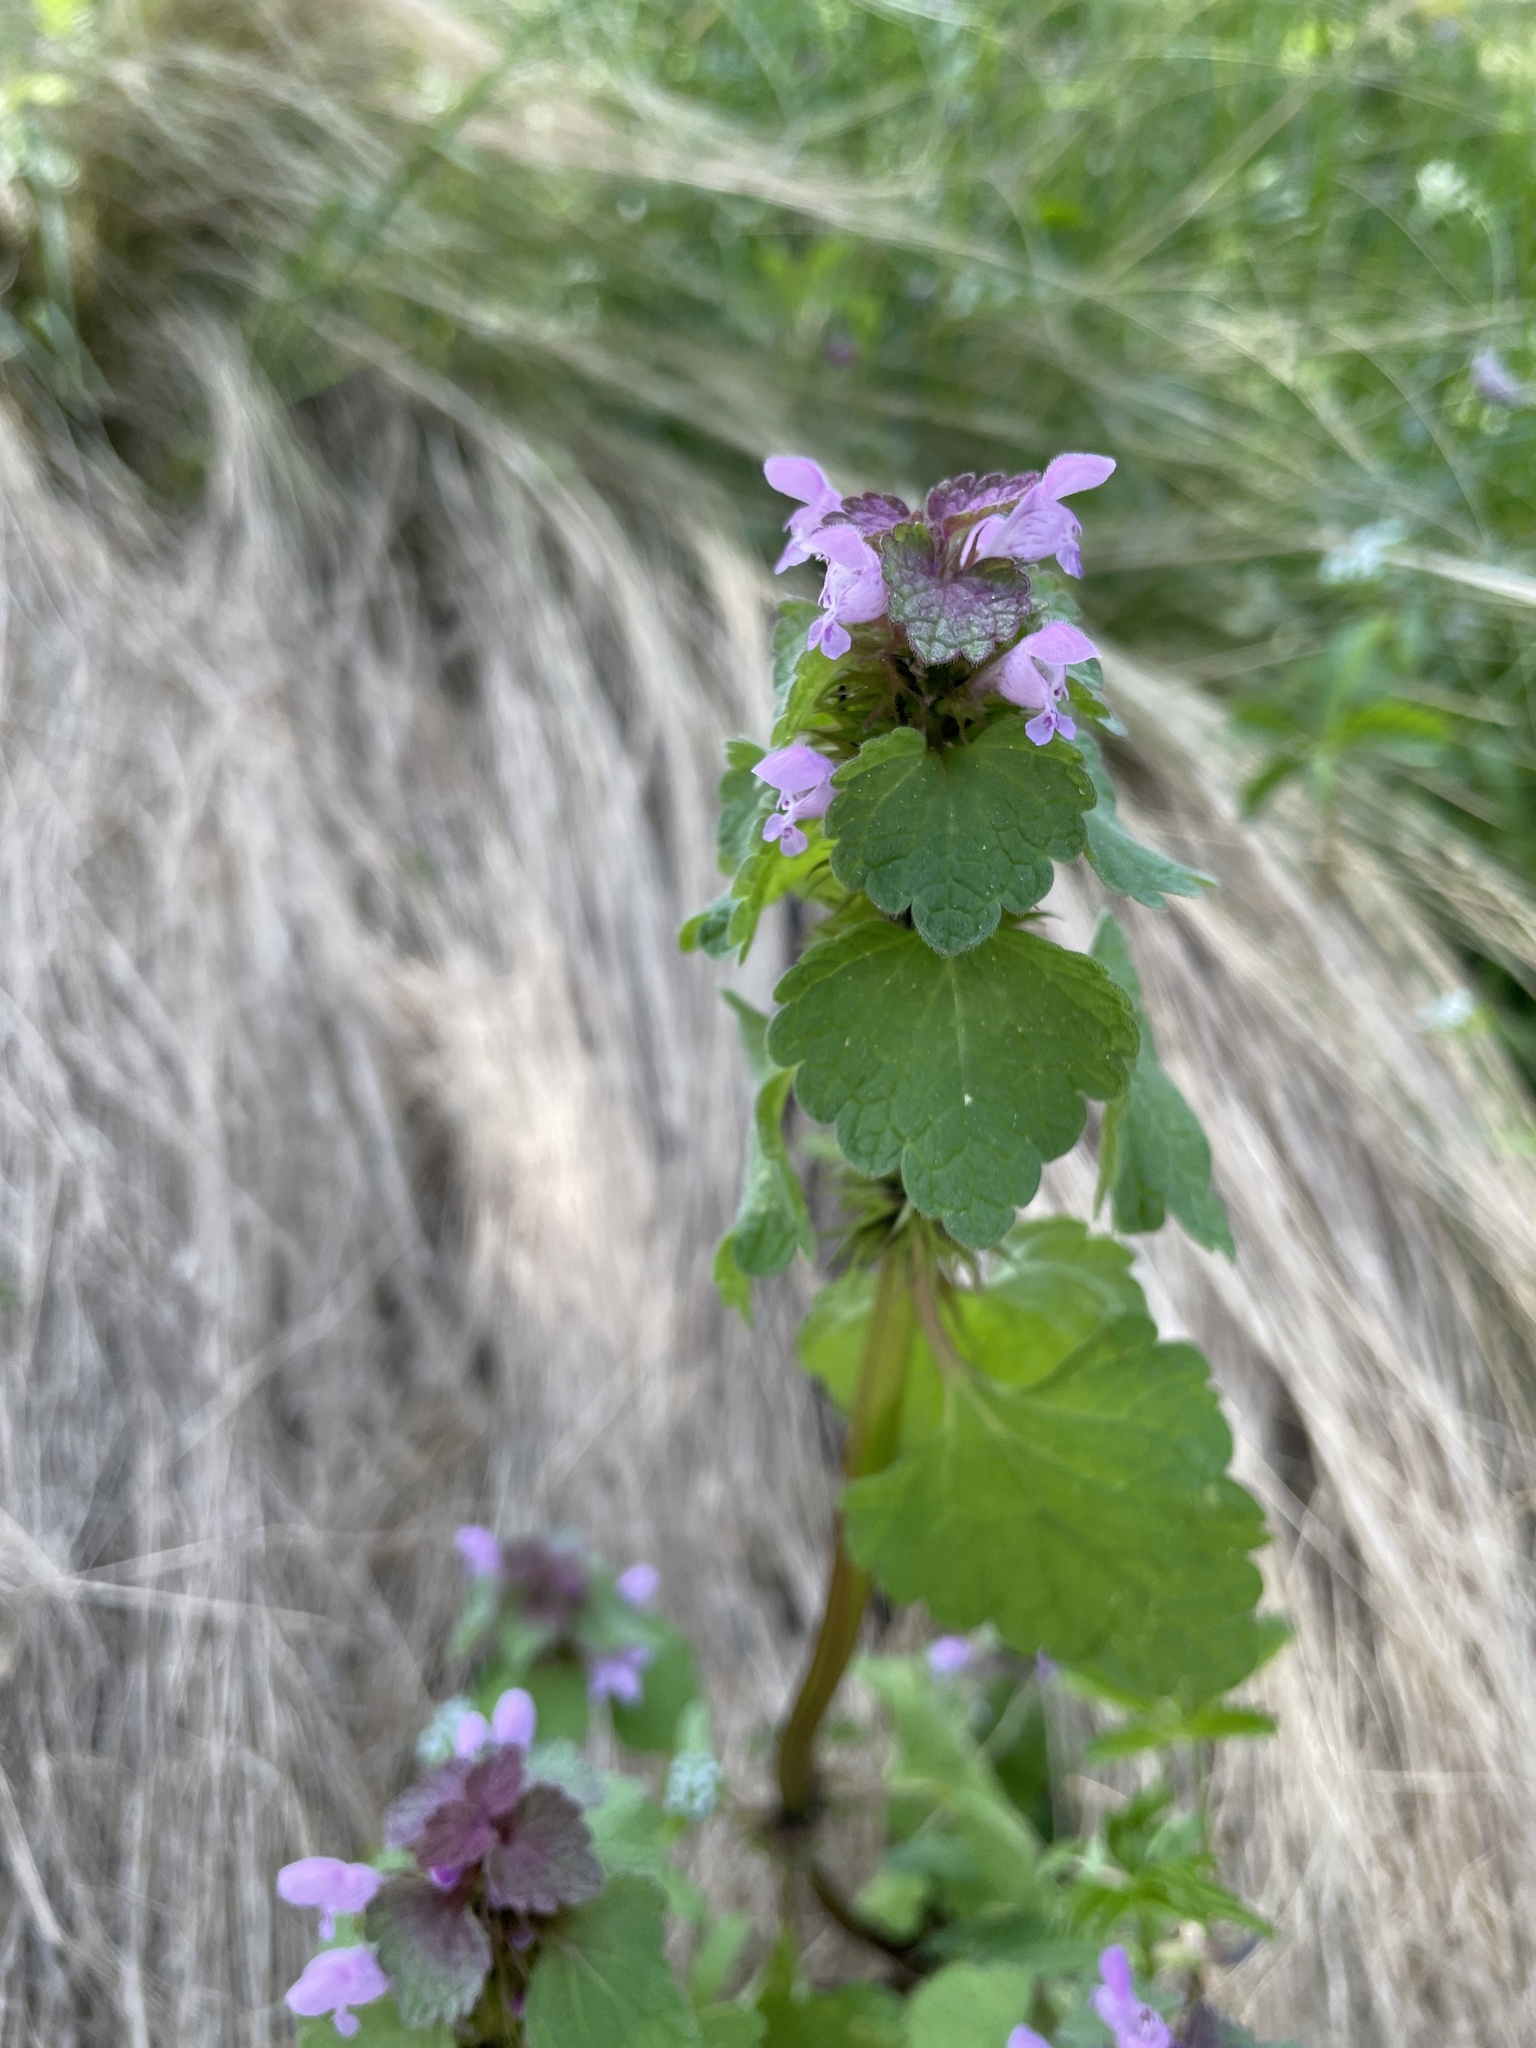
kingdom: Plantae
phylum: Tracheophyta
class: Magnoliopsida
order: Lamiales
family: Lamiaceae
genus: Lamium
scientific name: Lamium purpureum
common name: Red dead-nettle
